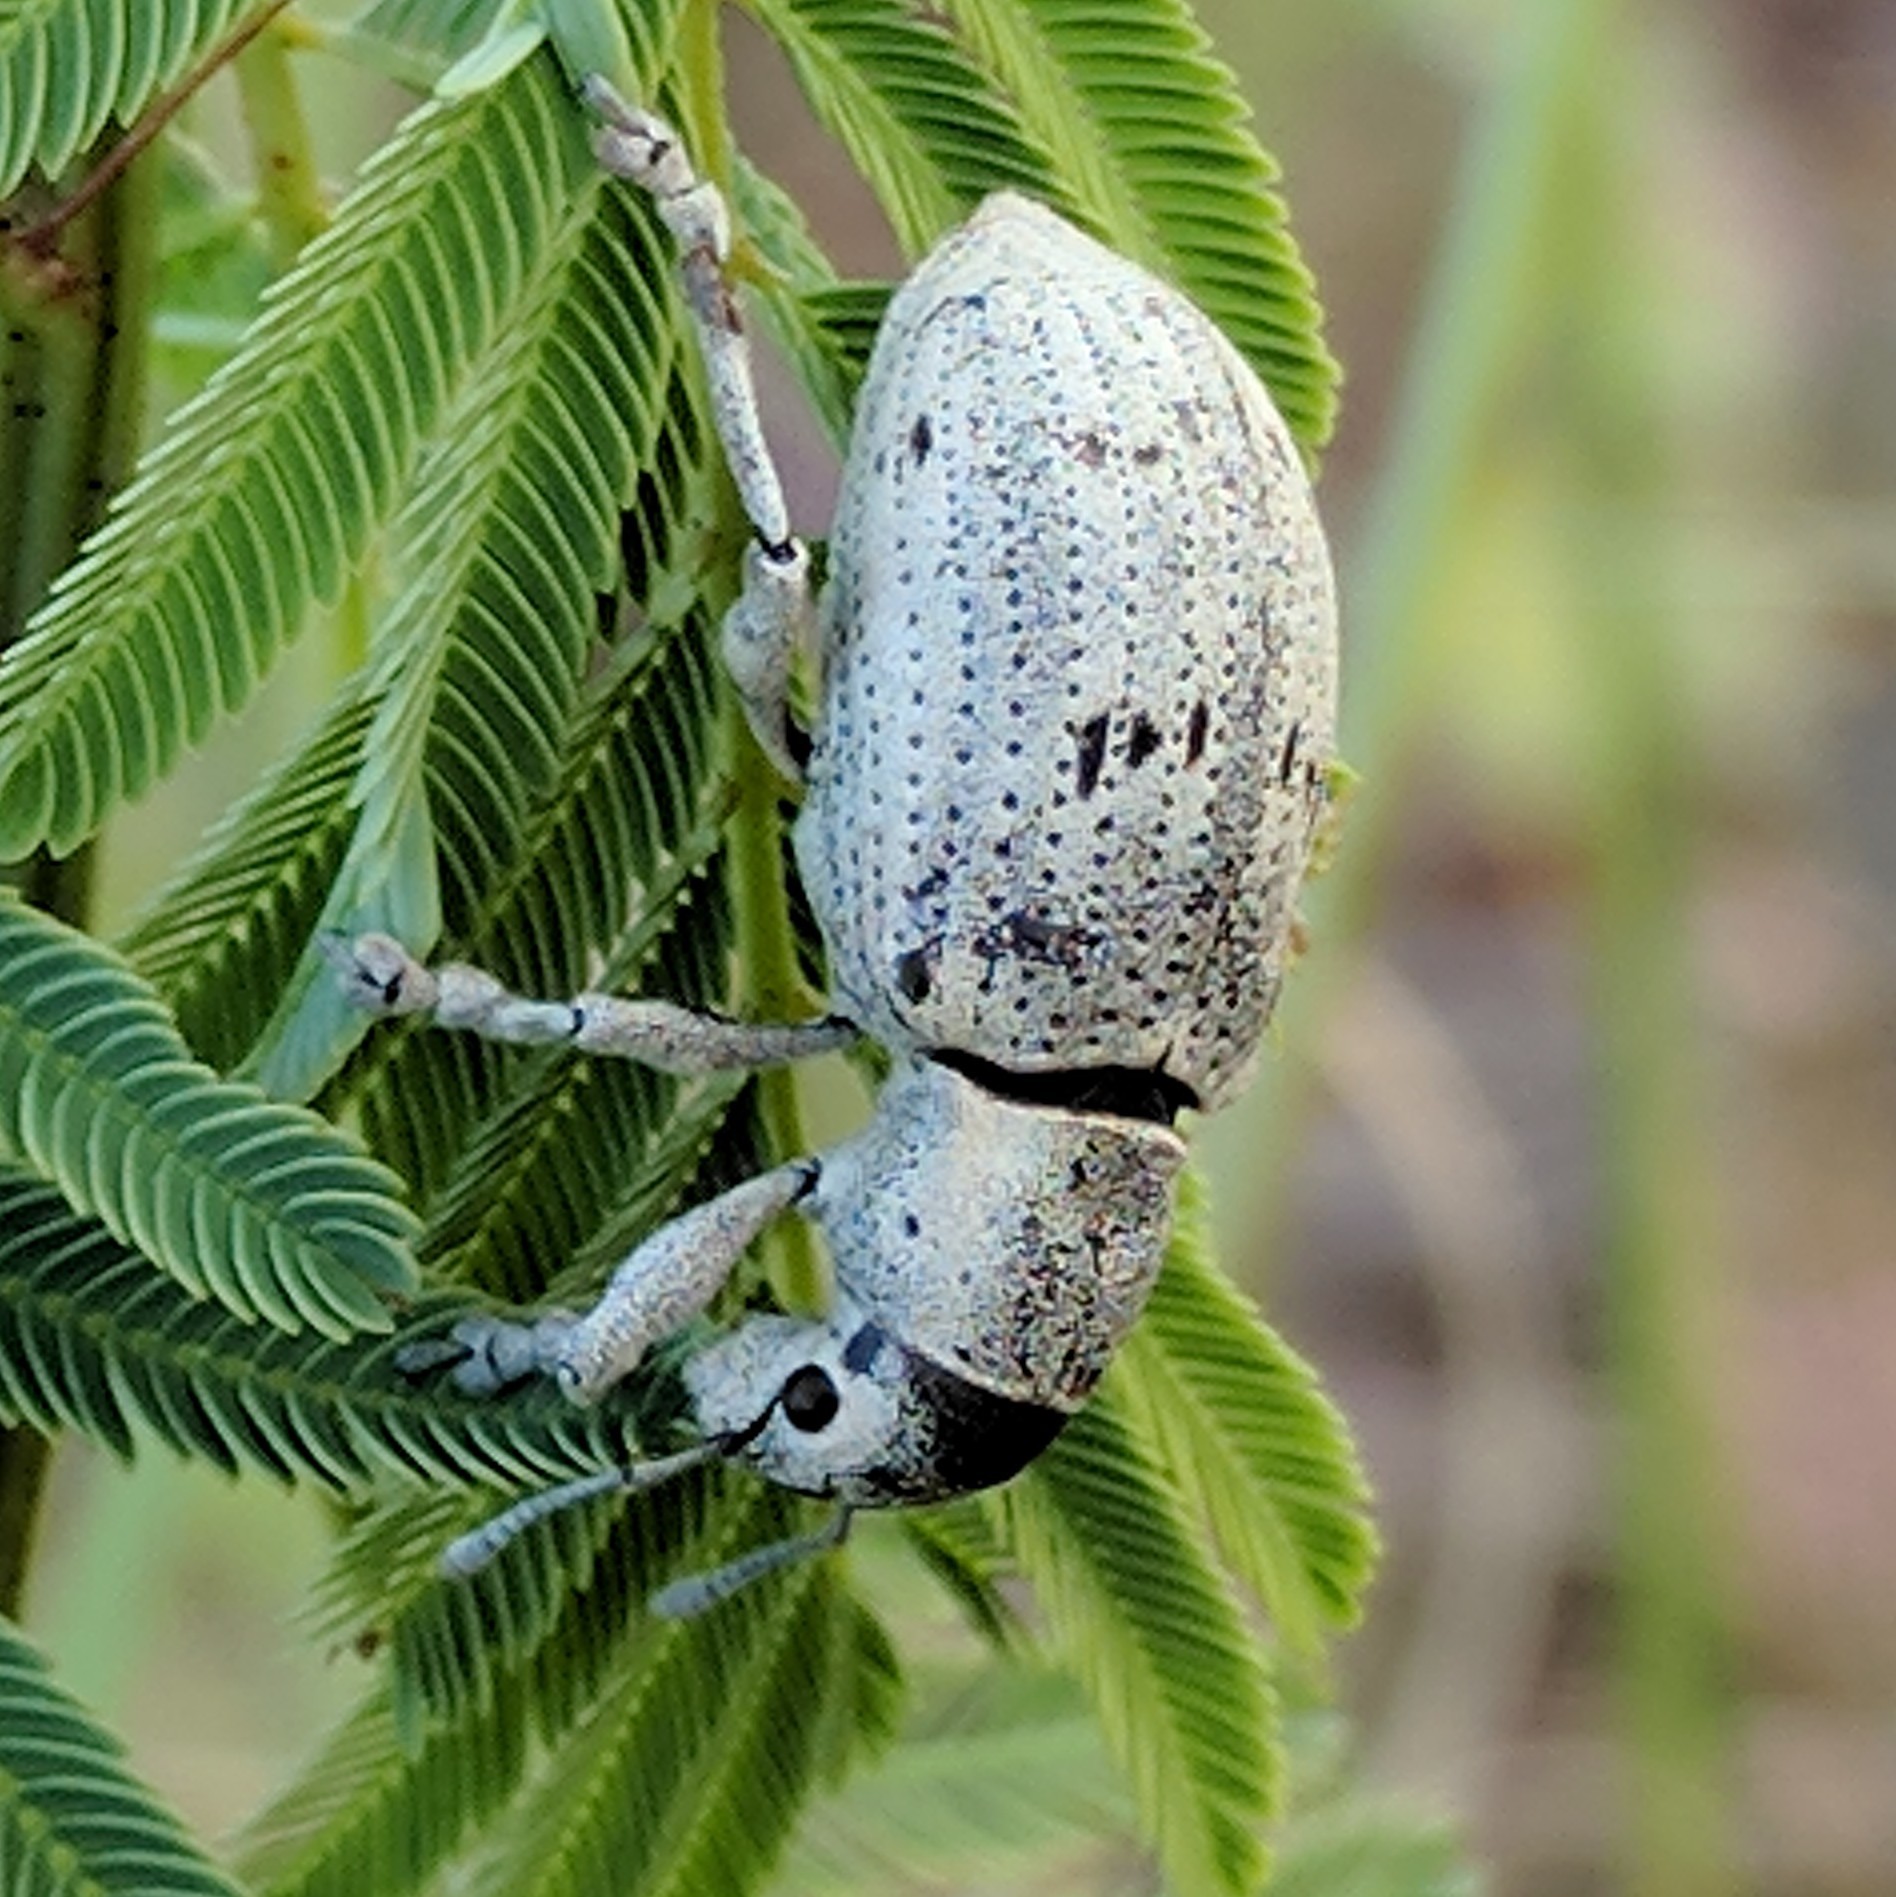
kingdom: Animalia
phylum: Arthropoda
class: Insecta
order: Coleoptera
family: Curculionidae
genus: Ericydeus
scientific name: Ericydeus lautus
